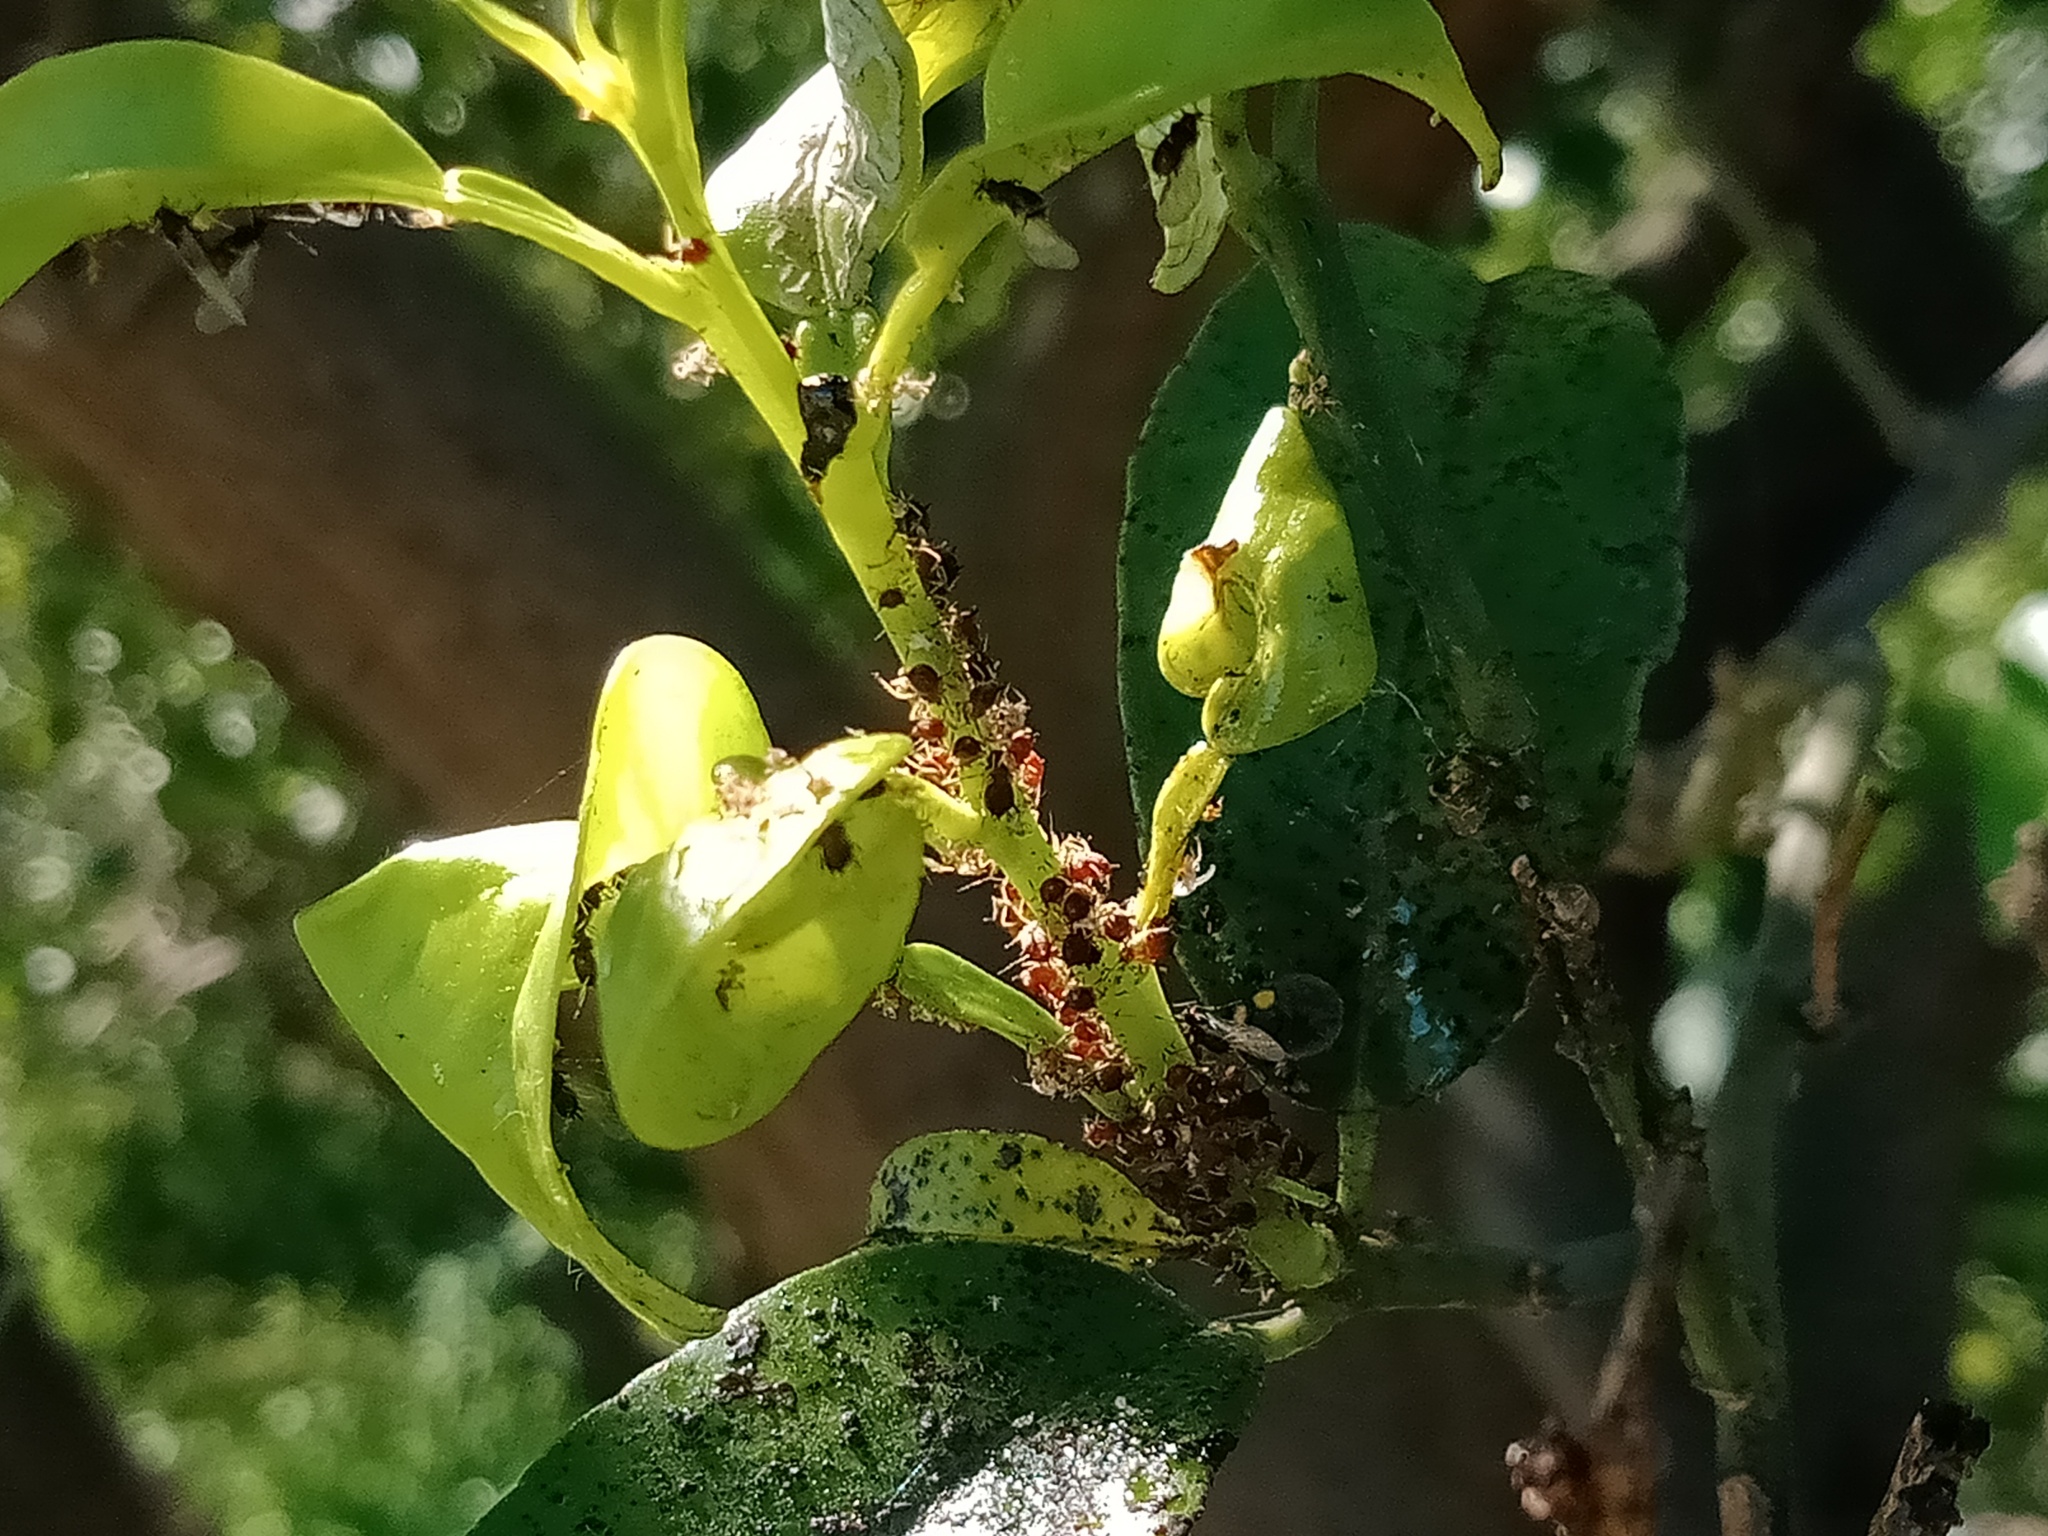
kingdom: Animalia
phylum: Arthropoda
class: Insecta
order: Coleoptera
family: Coccinellidae
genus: Scymnodes
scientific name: Scymnodes lividigaster
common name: Yellowshouldered lady beetle
